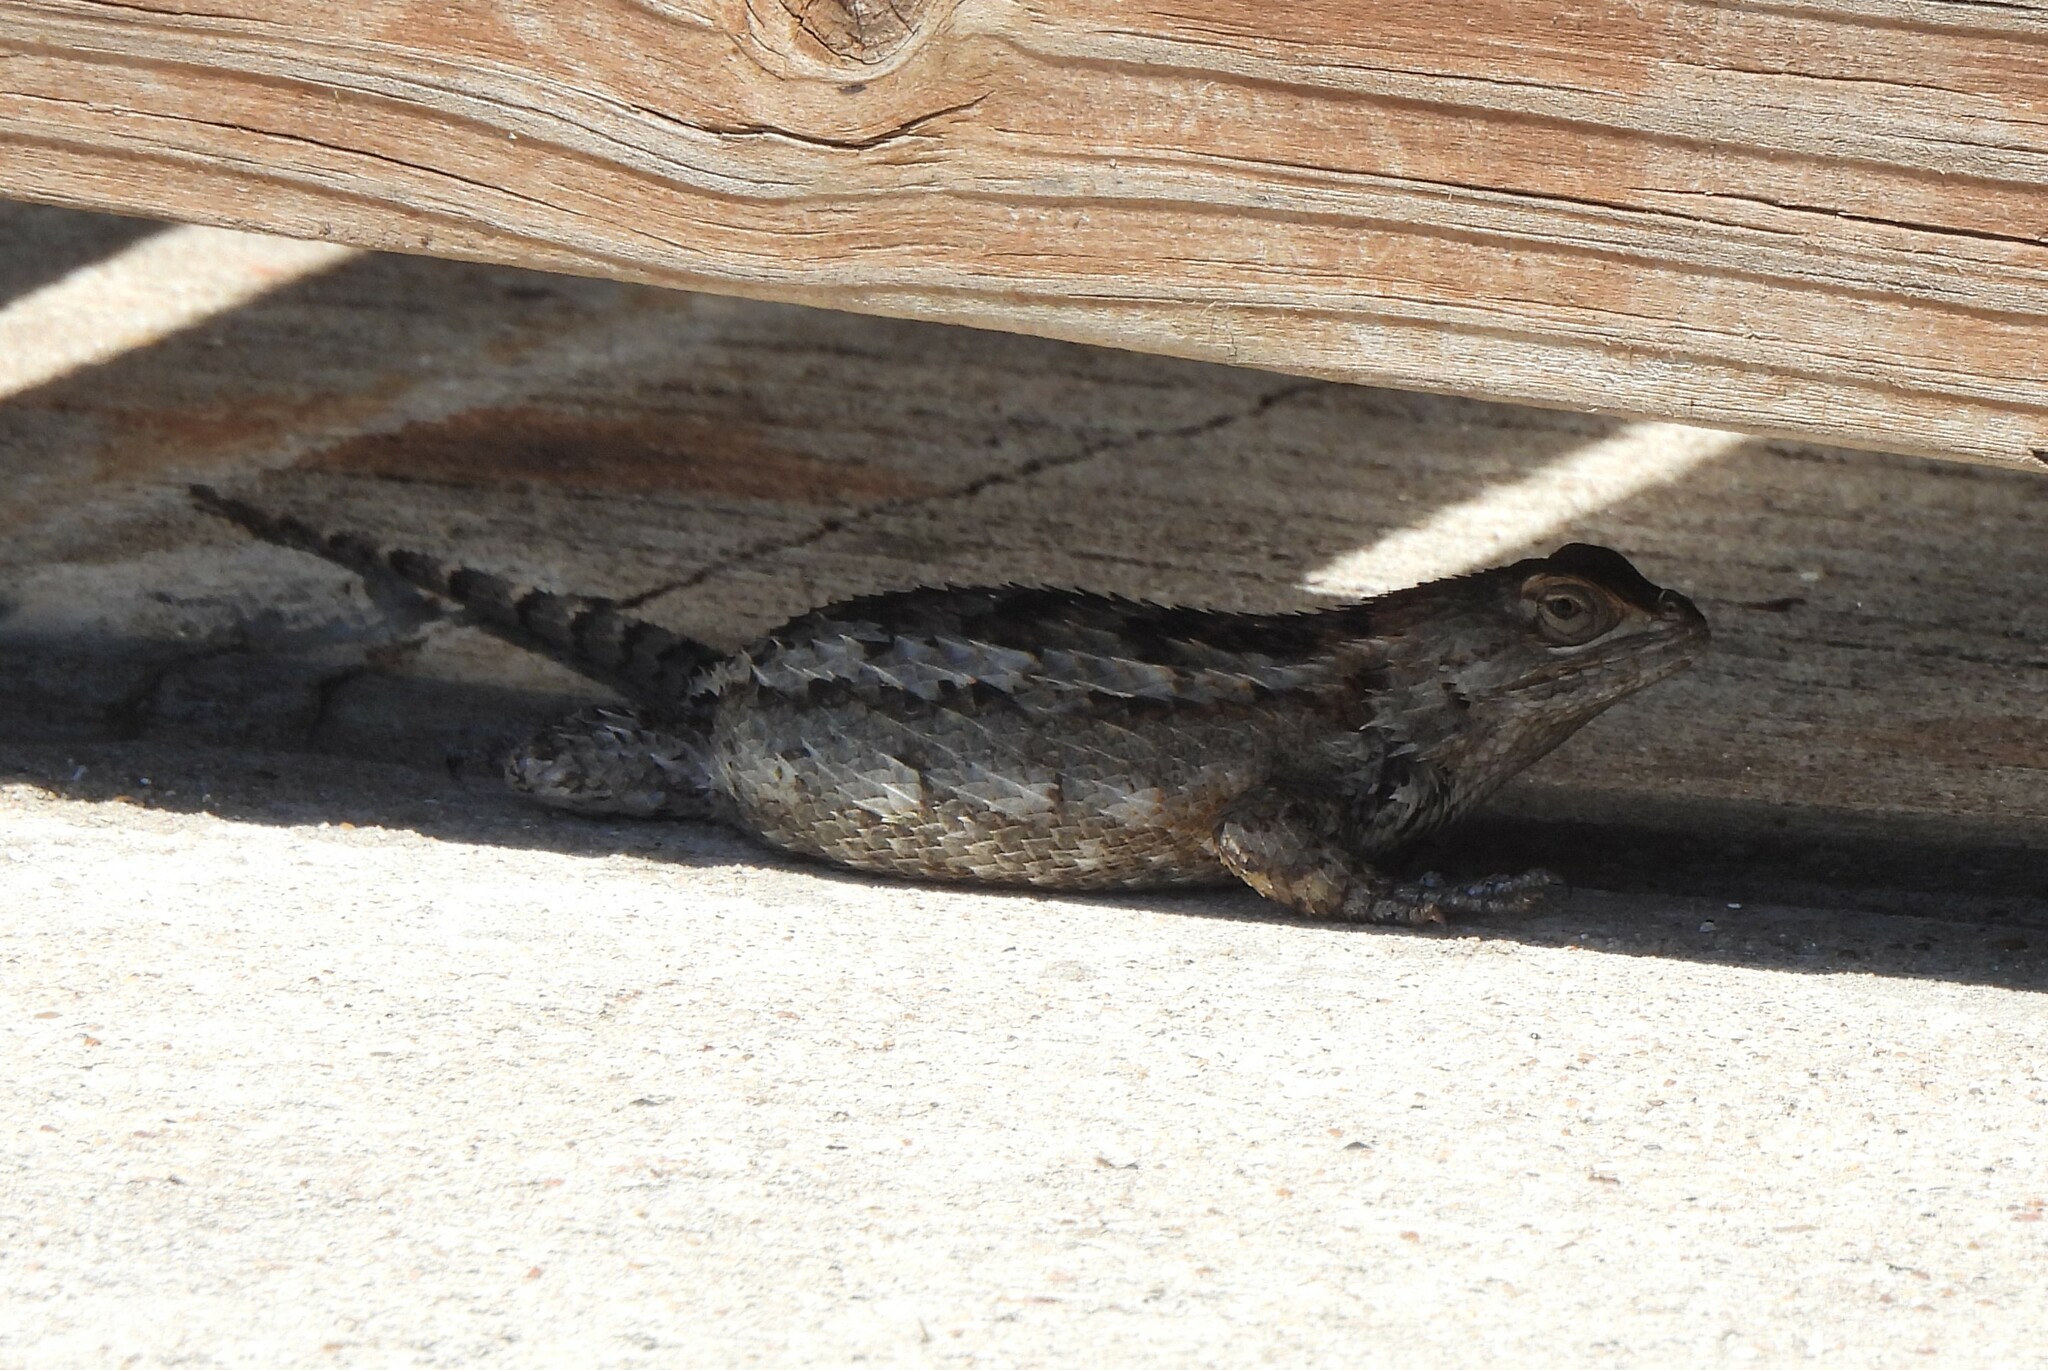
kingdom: Animalia
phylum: Chordata
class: Squamata
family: Phrynosomatidae
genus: Sceloporus
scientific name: Sceloporus olivaceus
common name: Texas spiny lizard
